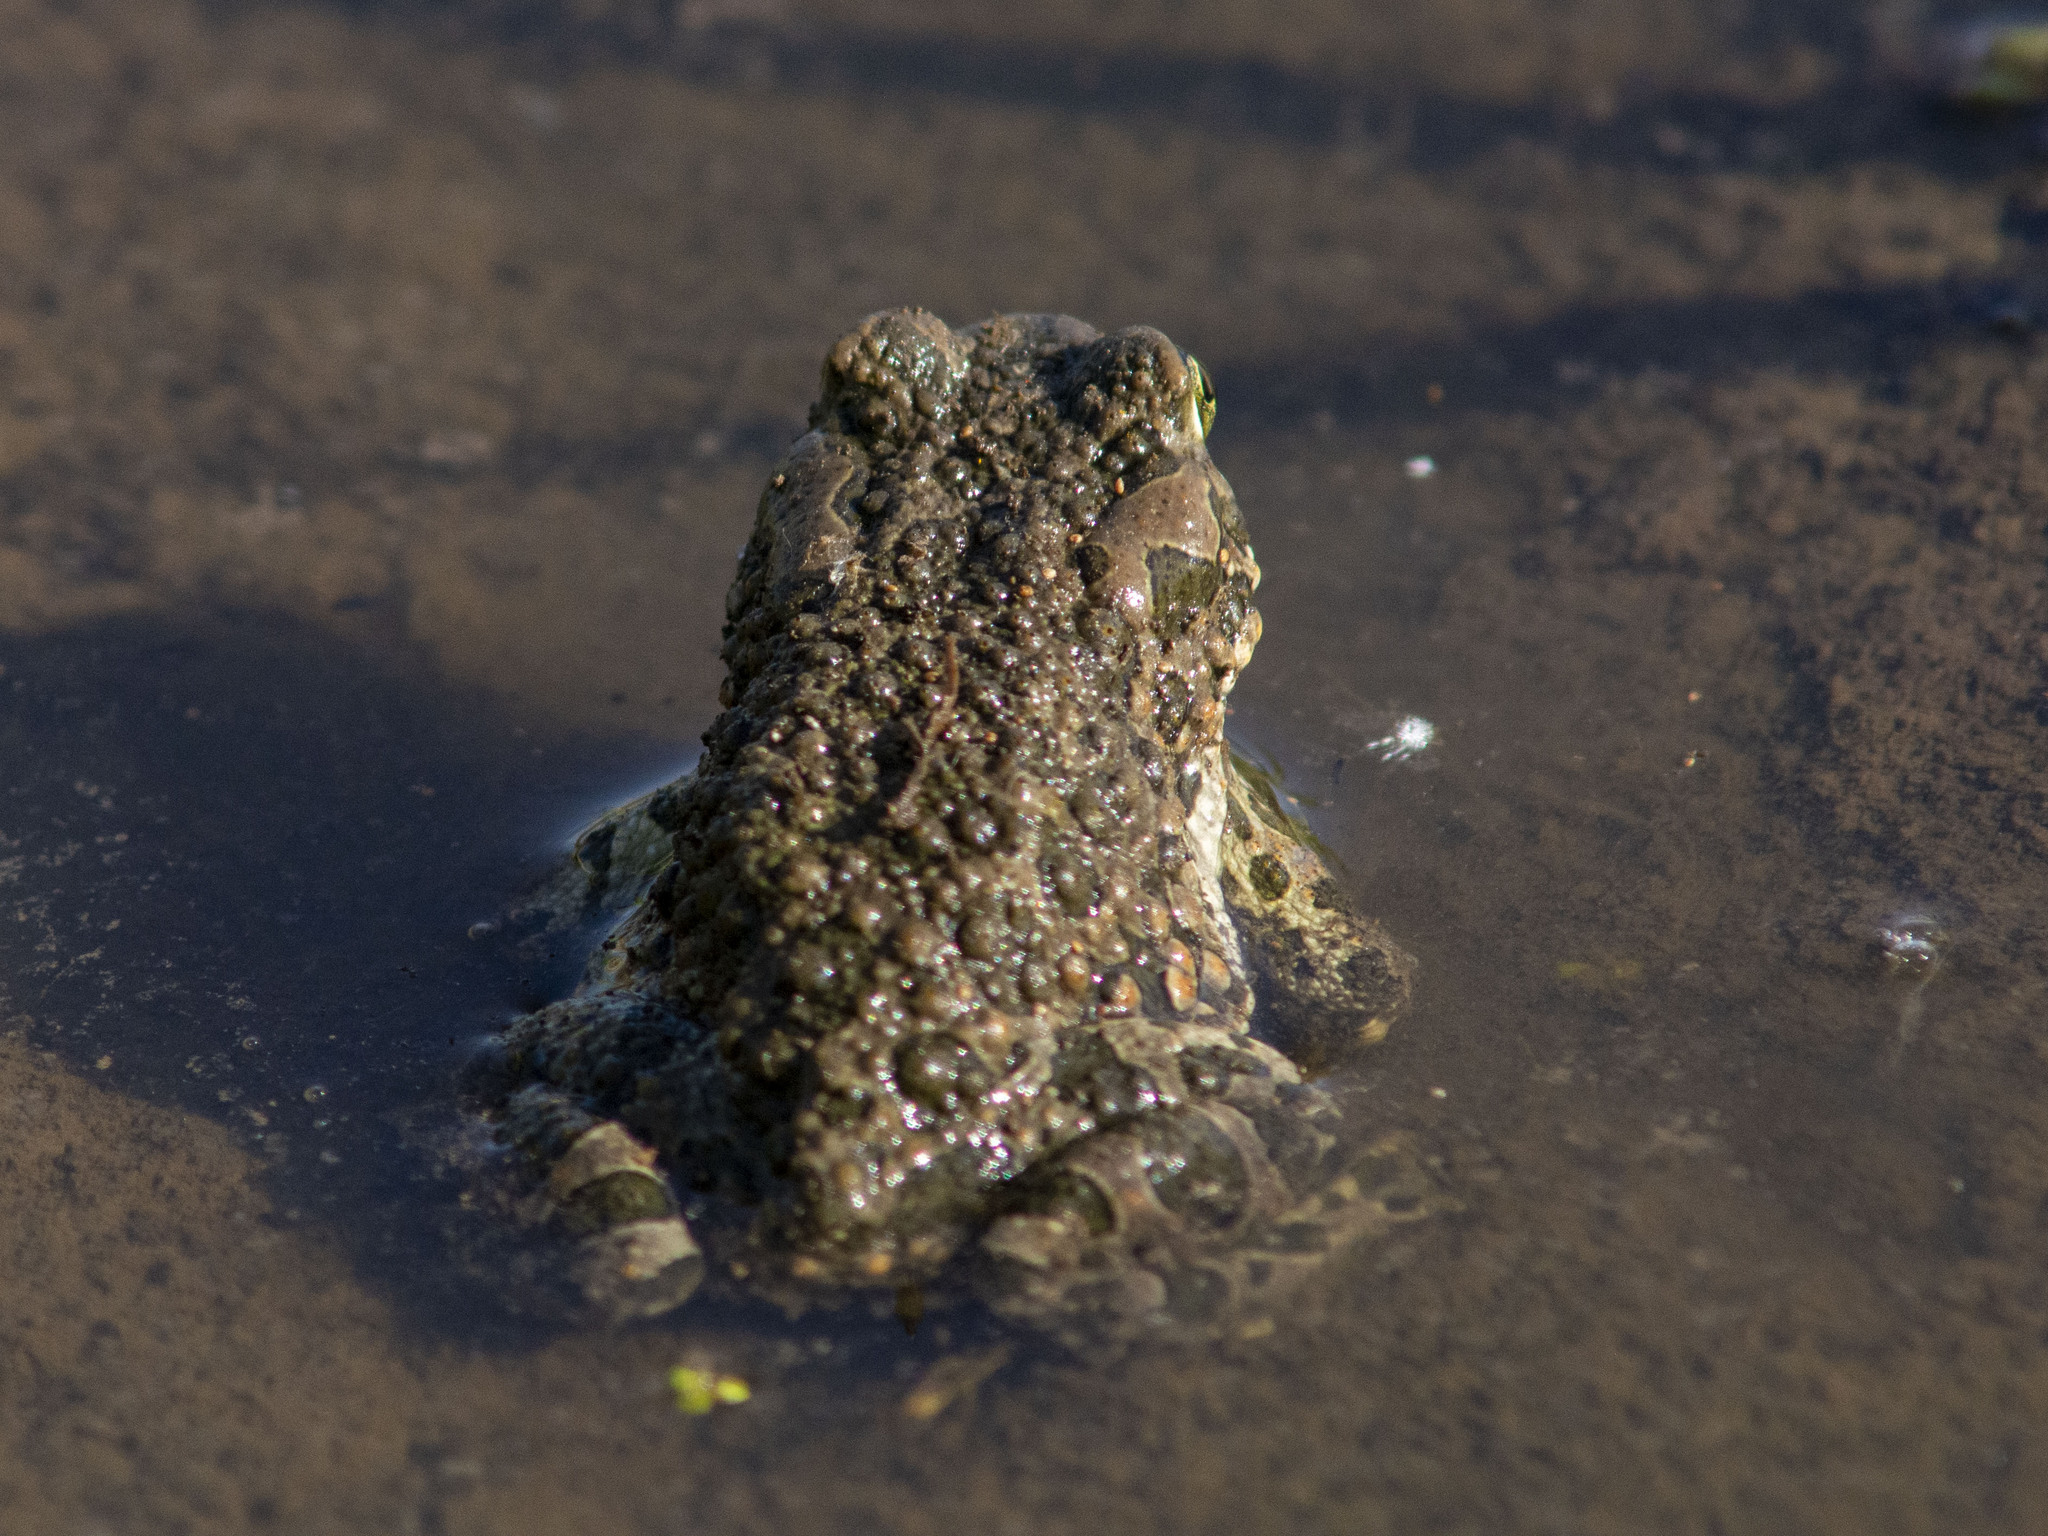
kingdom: Animalia
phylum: Chordata
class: Amphibia
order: Anura
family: Bufonidae
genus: Bufotes
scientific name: Bufotes viridis
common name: European green toad
